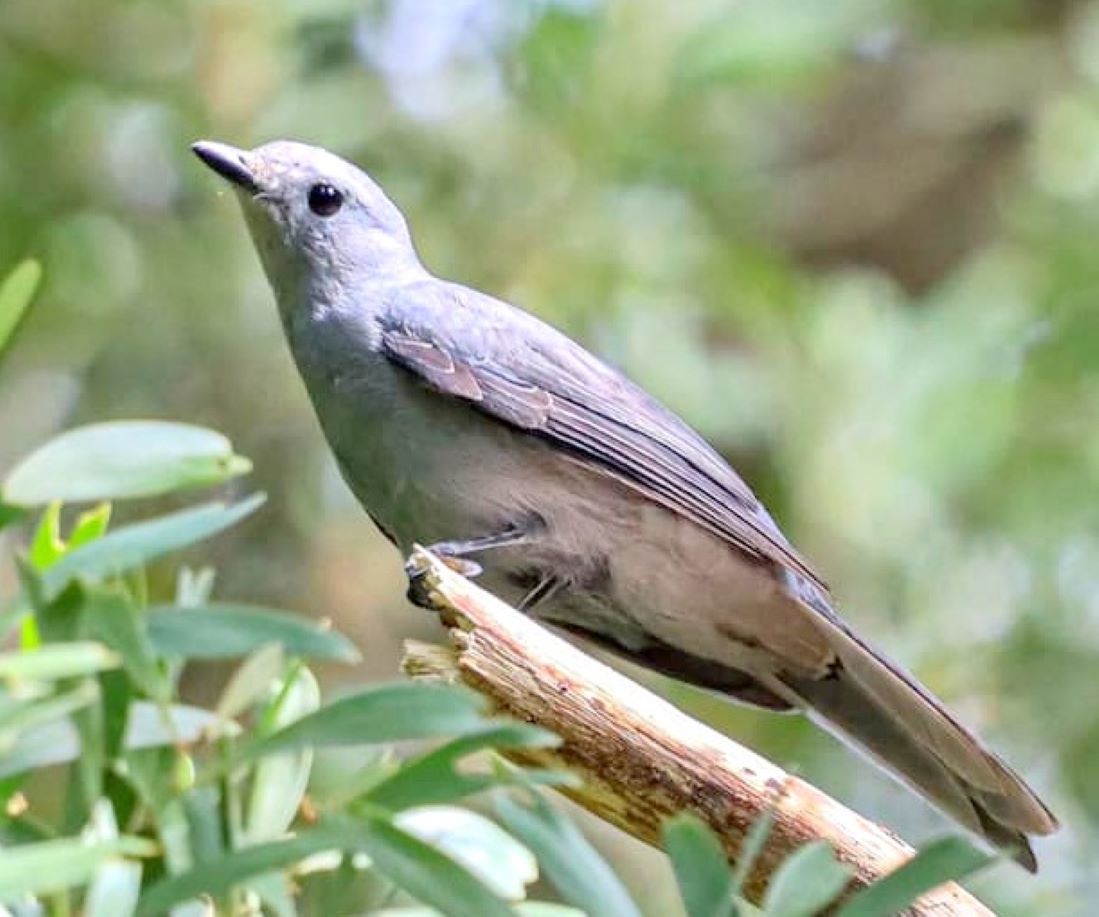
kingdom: Animalia
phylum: Chordata
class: Aves
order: Passeriformes
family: Campephagidae
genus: Coracina
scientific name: Coracina caesia
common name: Grey cuckooshrike
